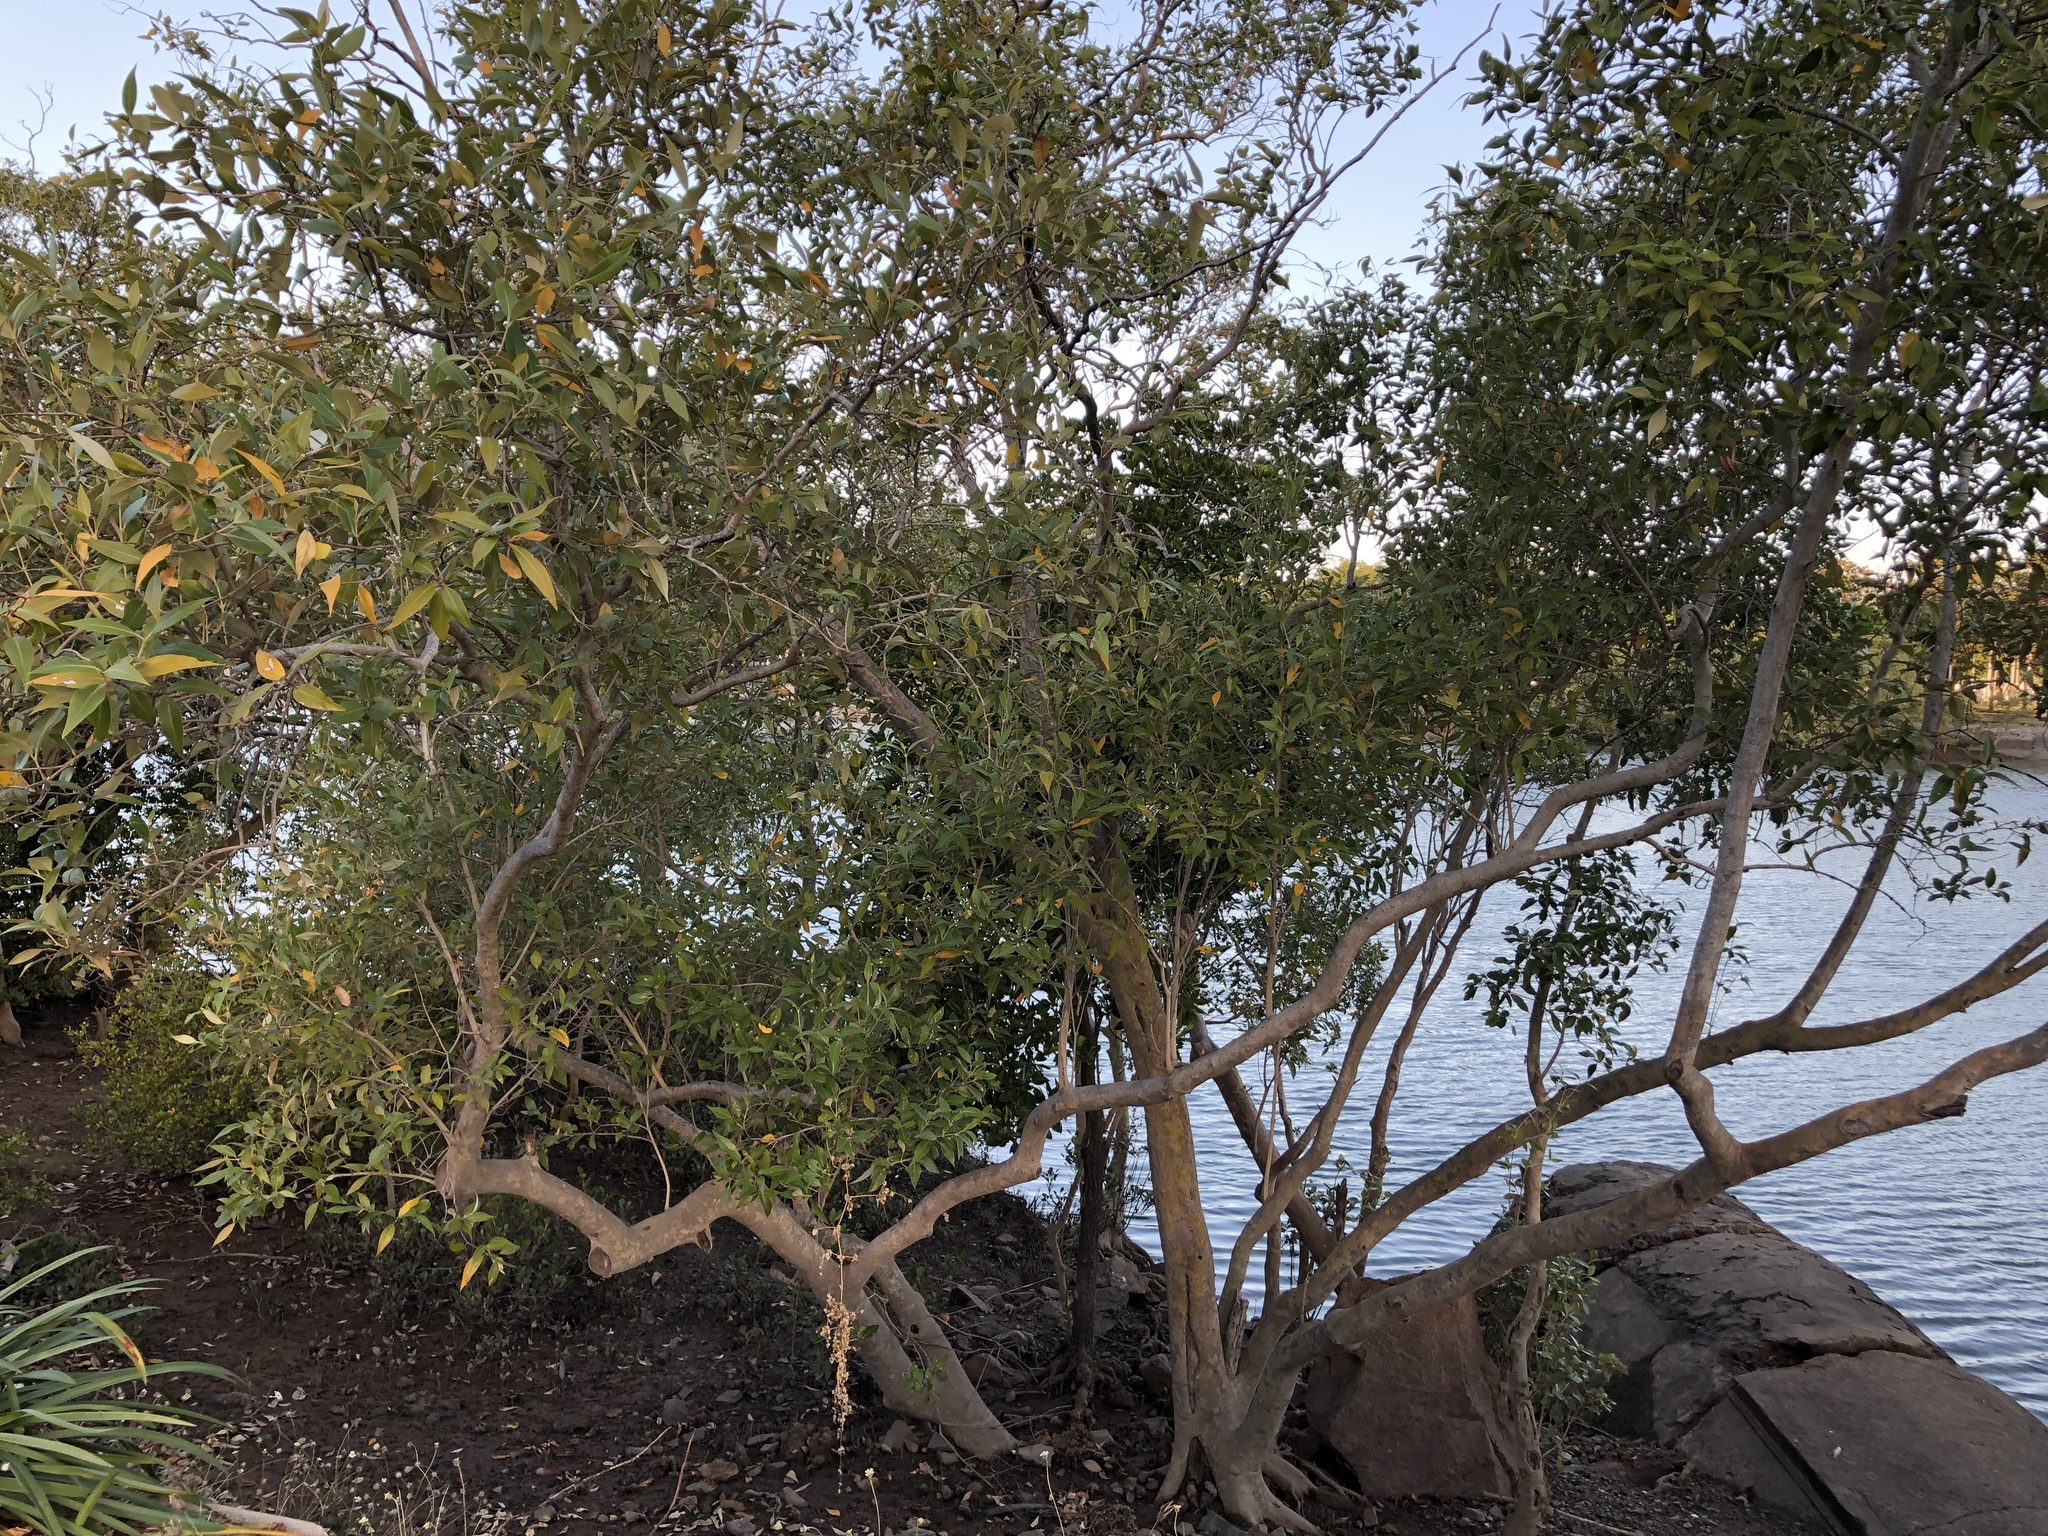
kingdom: Plantae
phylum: Tracheophyta
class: Magnoliopsida
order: Lamiales
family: Acanthaceae
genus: Avicennia
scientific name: Avicennia marina
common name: Gray mangrove
